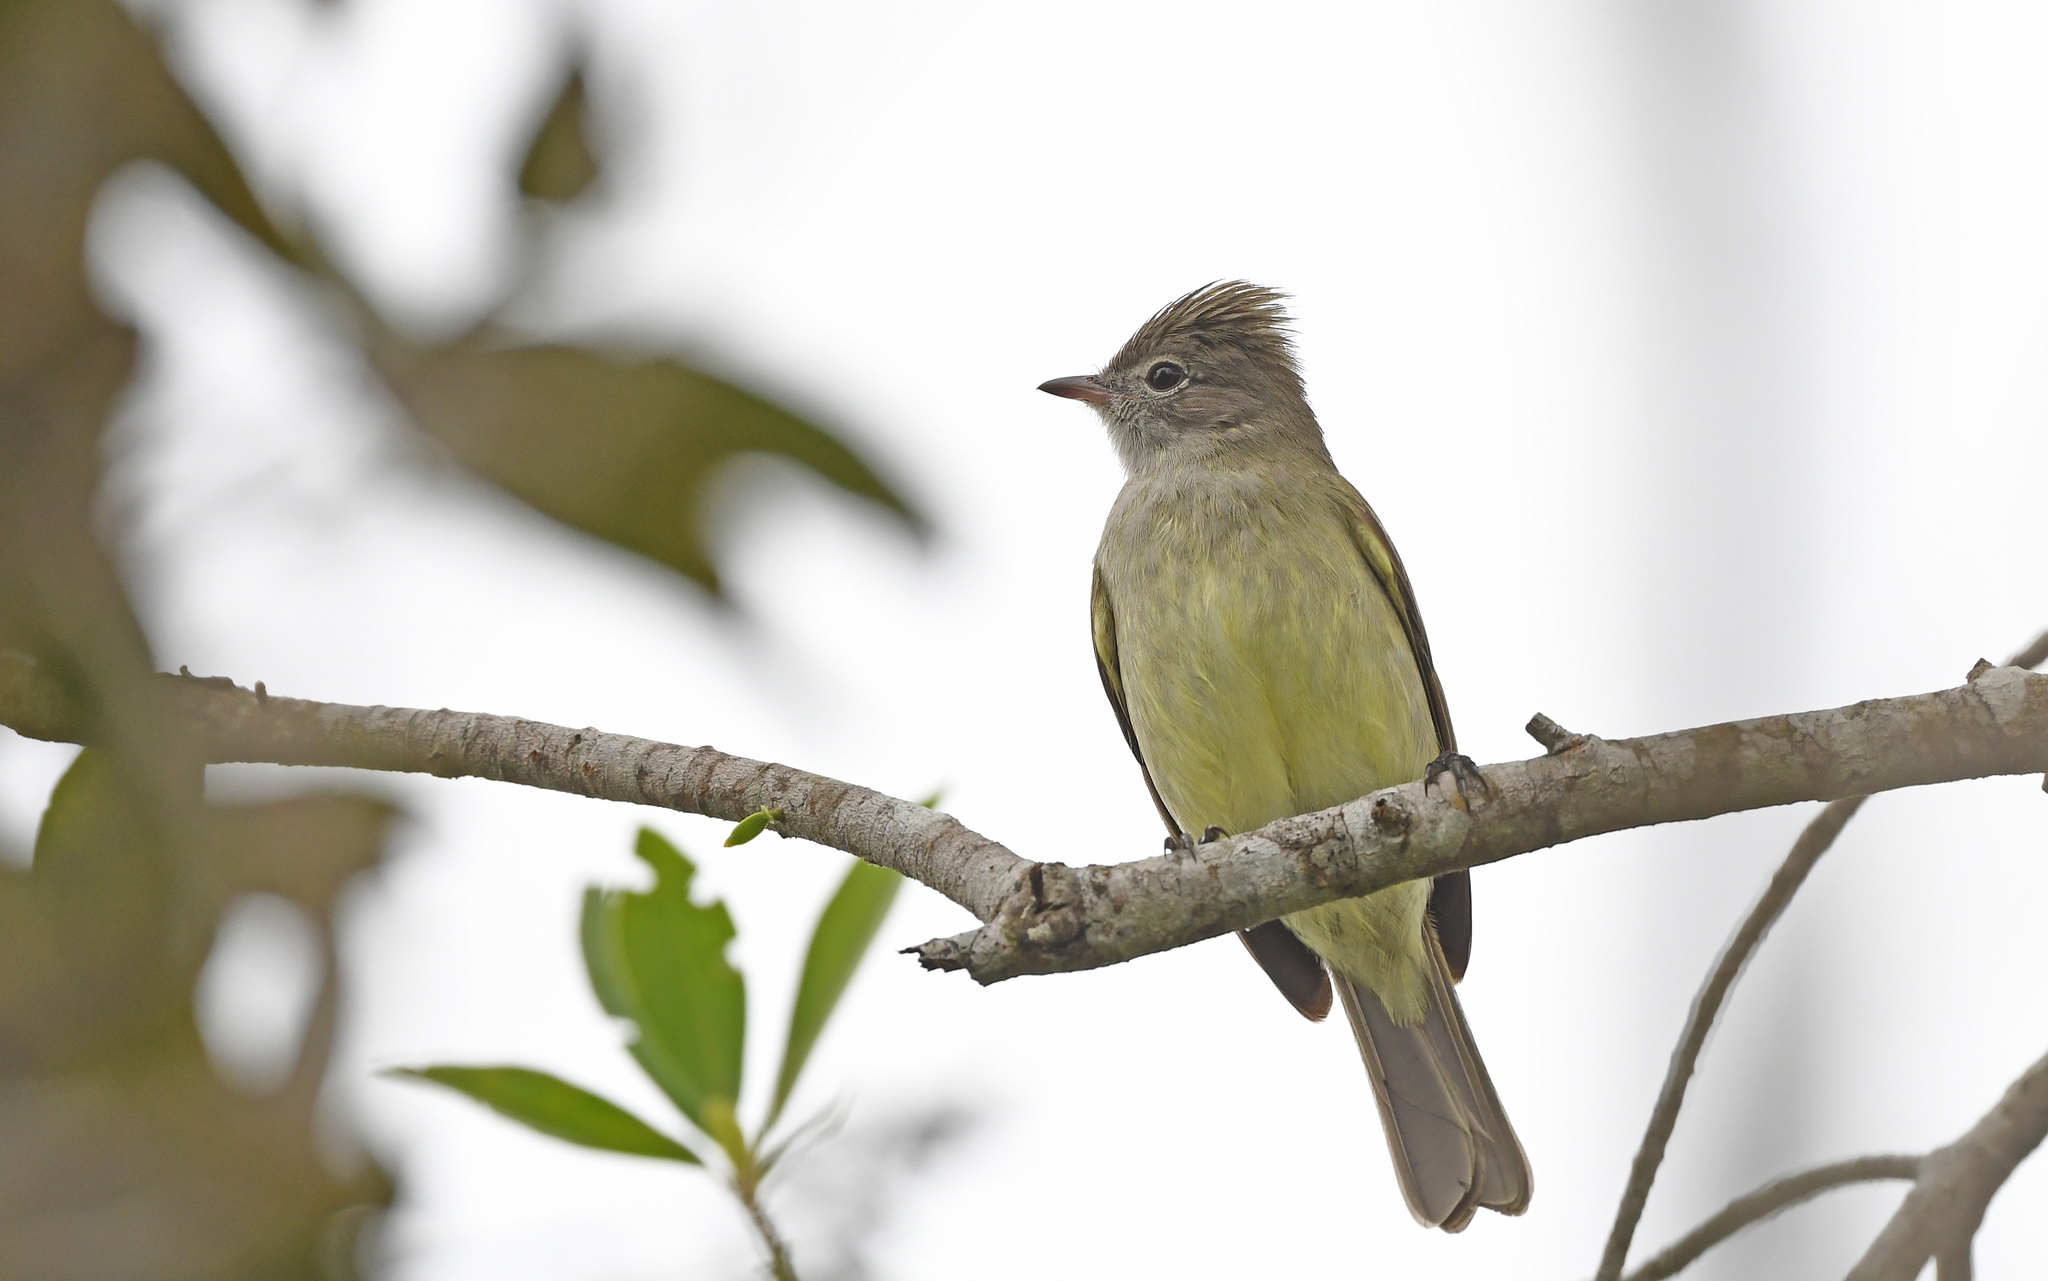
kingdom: Animalia
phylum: Chordata
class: Aves
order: Passeriformes
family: Tyrannidae
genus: Elaenia
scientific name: Elaenia flavogaster
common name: Yellow-bellied elaenia
